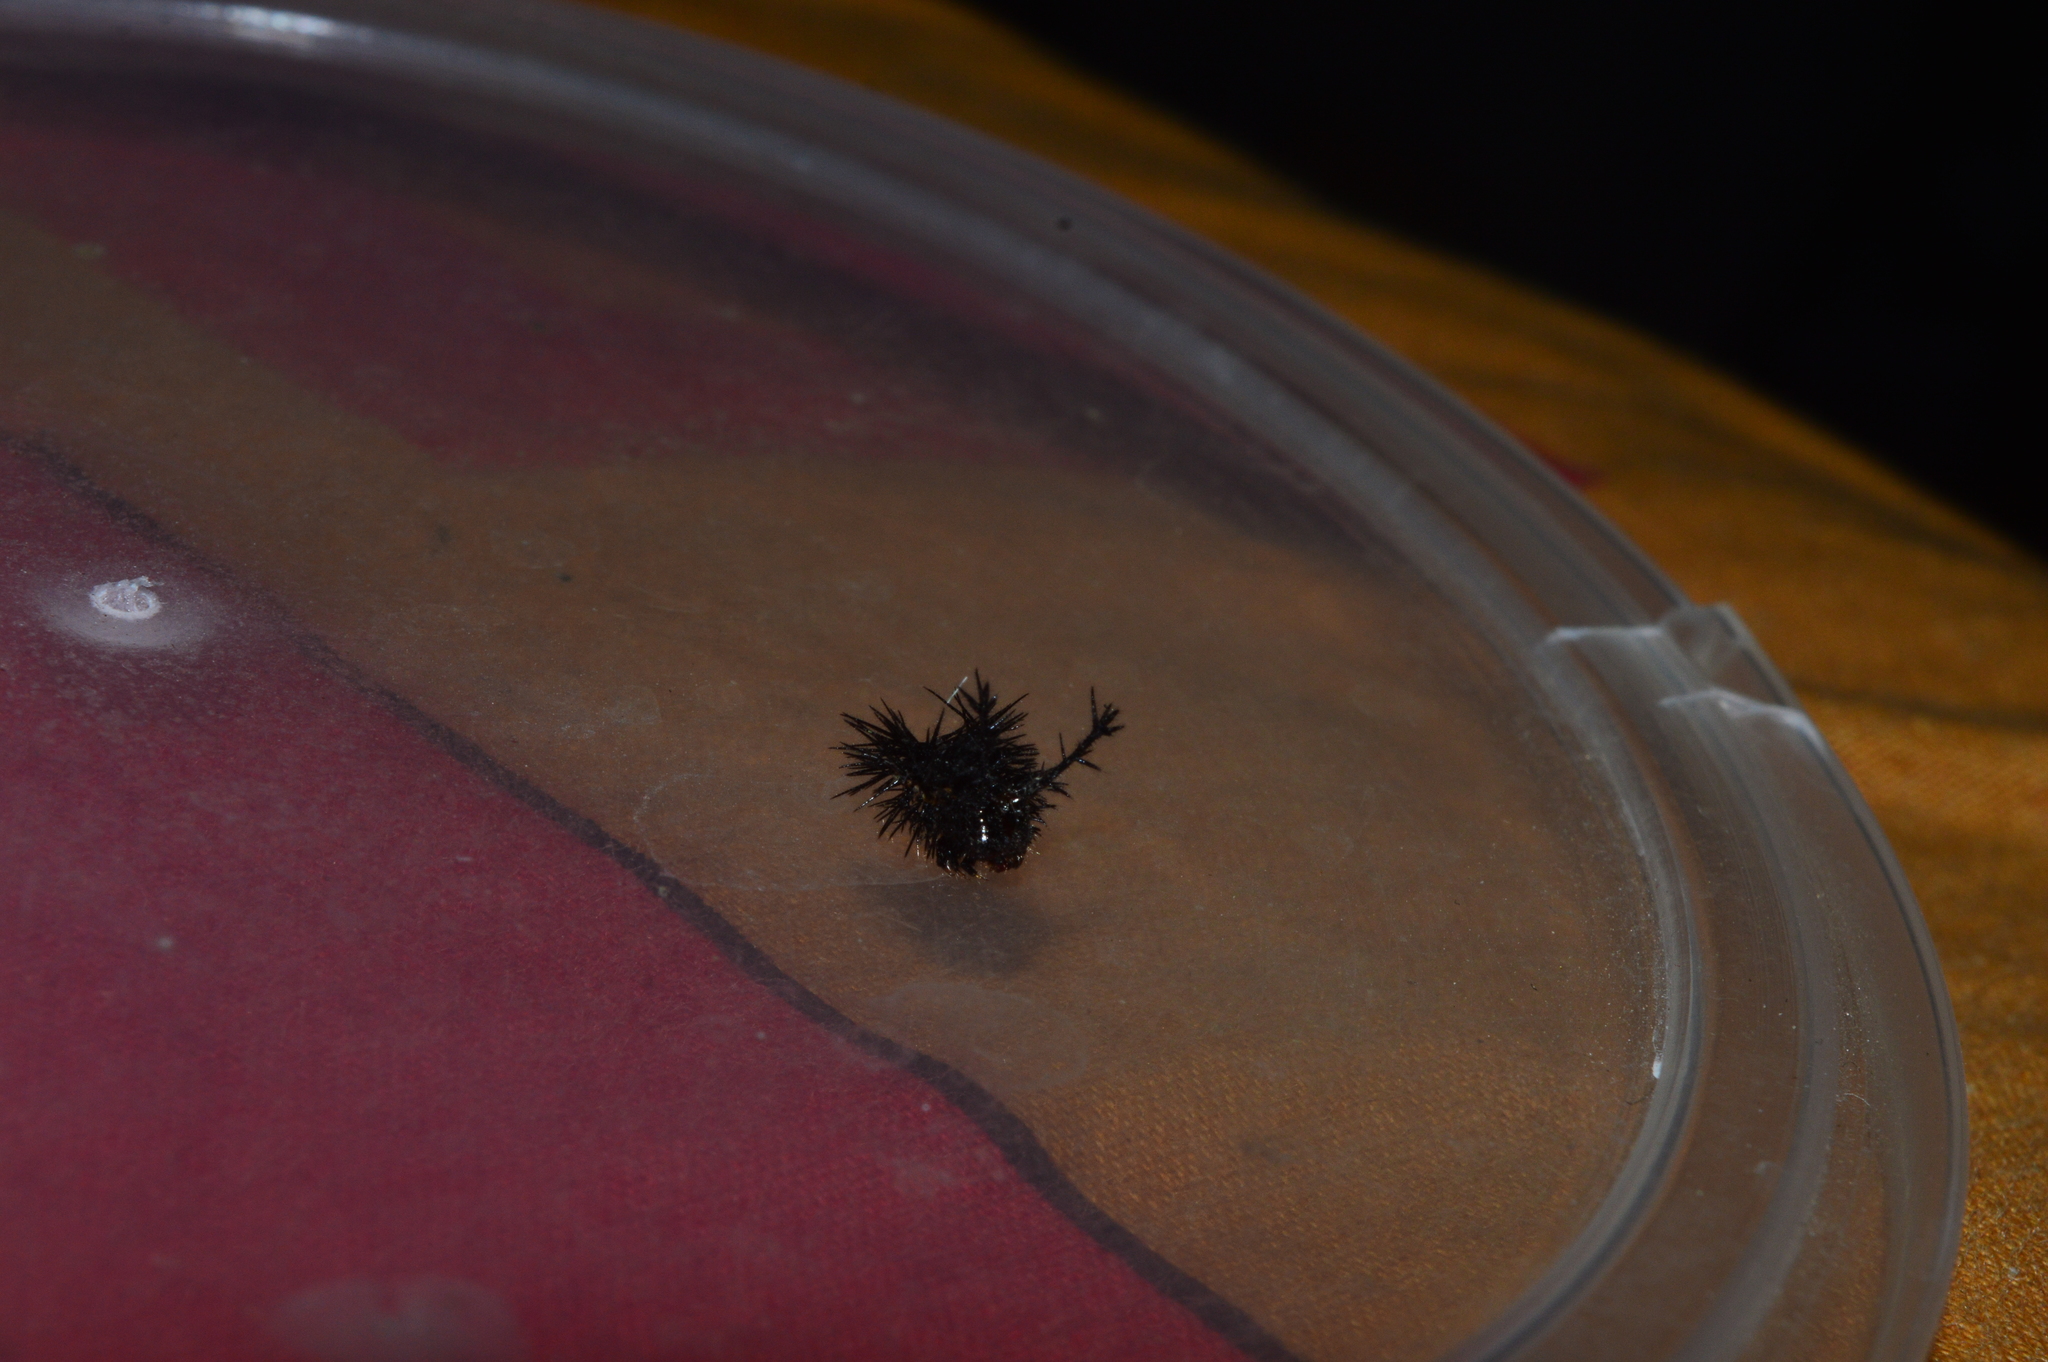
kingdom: Animalia
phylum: Arthropoda
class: Insecta
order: Lepidoptera
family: Nymphalidae
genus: Ariadne
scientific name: Ariadne ariadne
